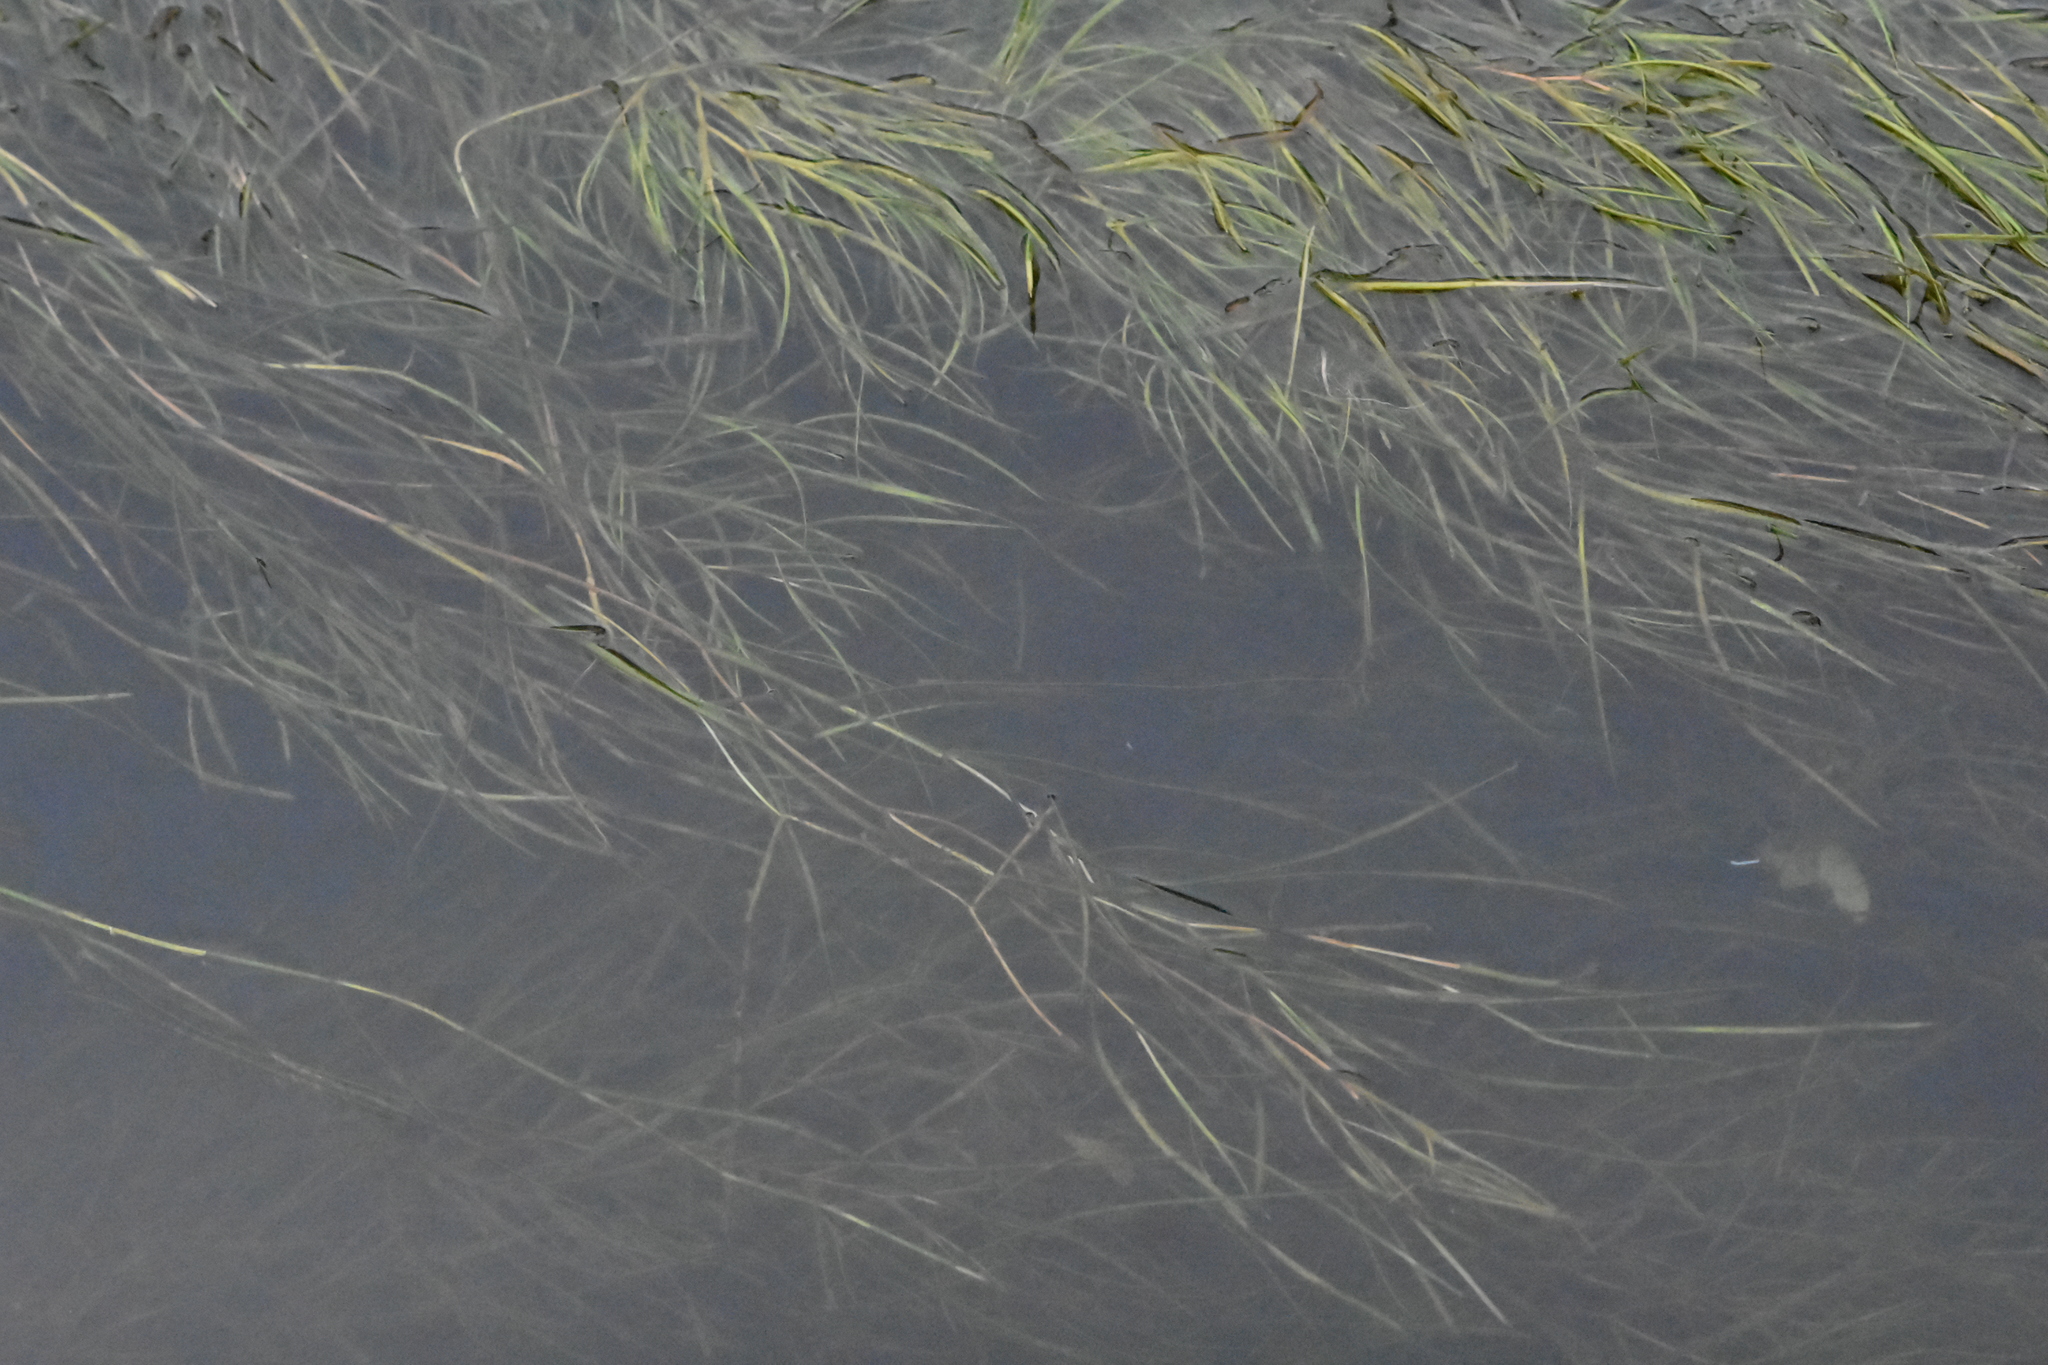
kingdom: Plantae
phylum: Tracheophyta
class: Liliopsida
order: Alismatales
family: Potamogetonaceae
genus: Stuckenia
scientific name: Stuckenia pectinata
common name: Sago pondweed
